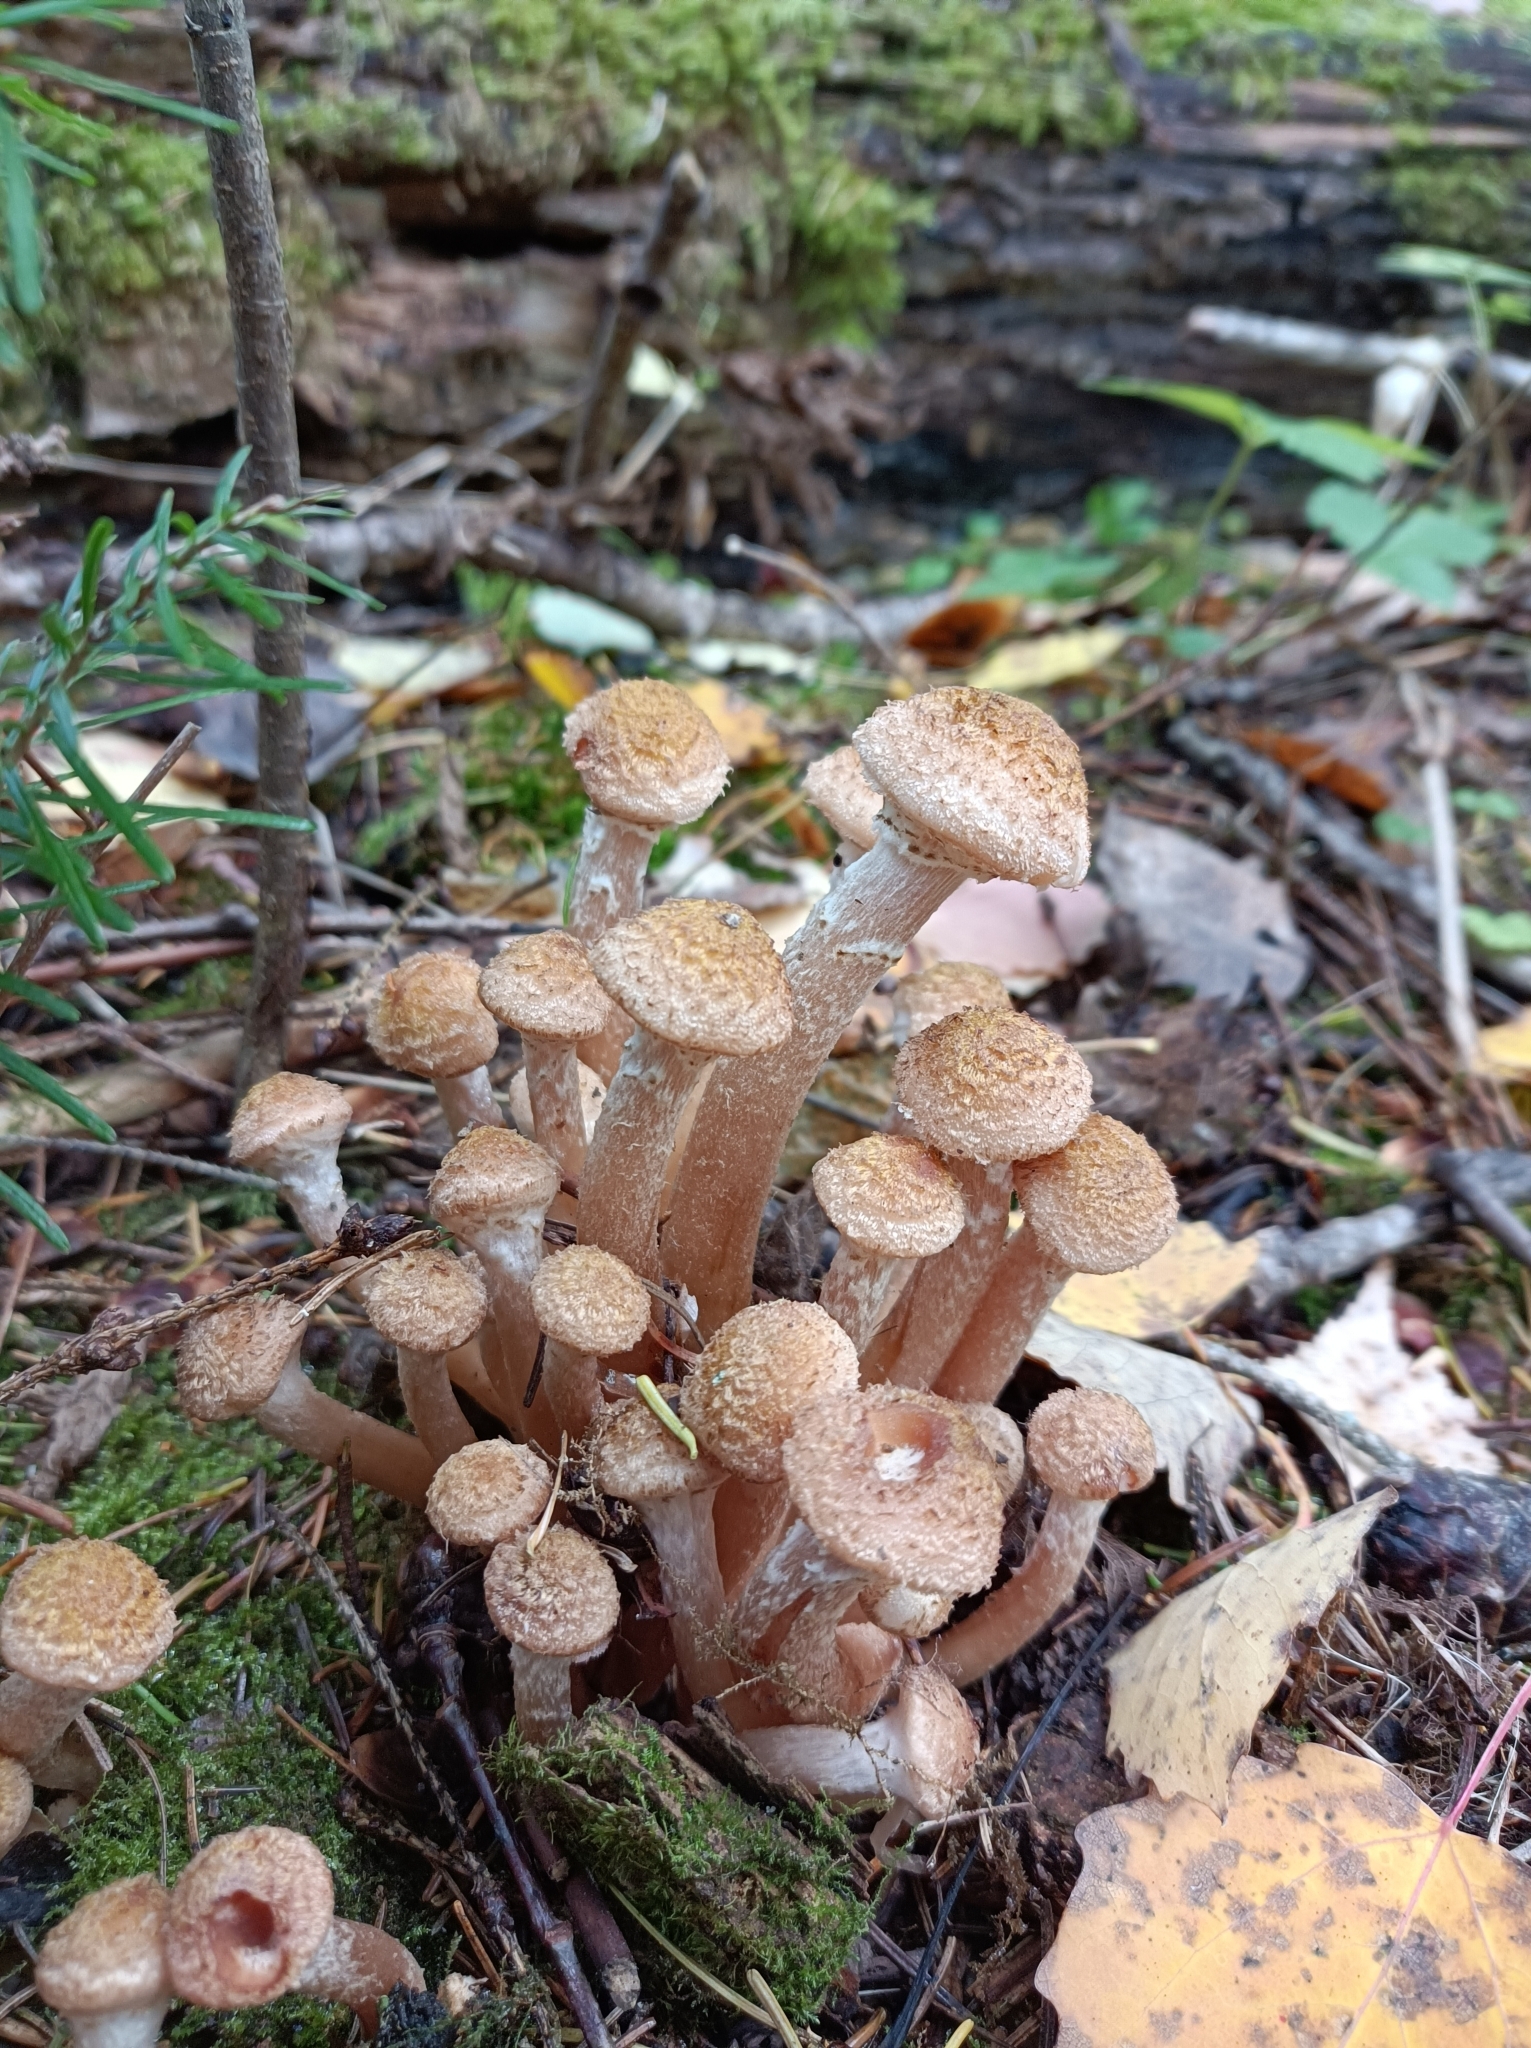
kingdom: Fungi
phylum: Basidiomycota
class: Agaricomycetes
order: Agaricales
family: Physalacriaceae
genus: Armillaria
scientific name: Armillaria borealis
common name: Northern honey fungus
